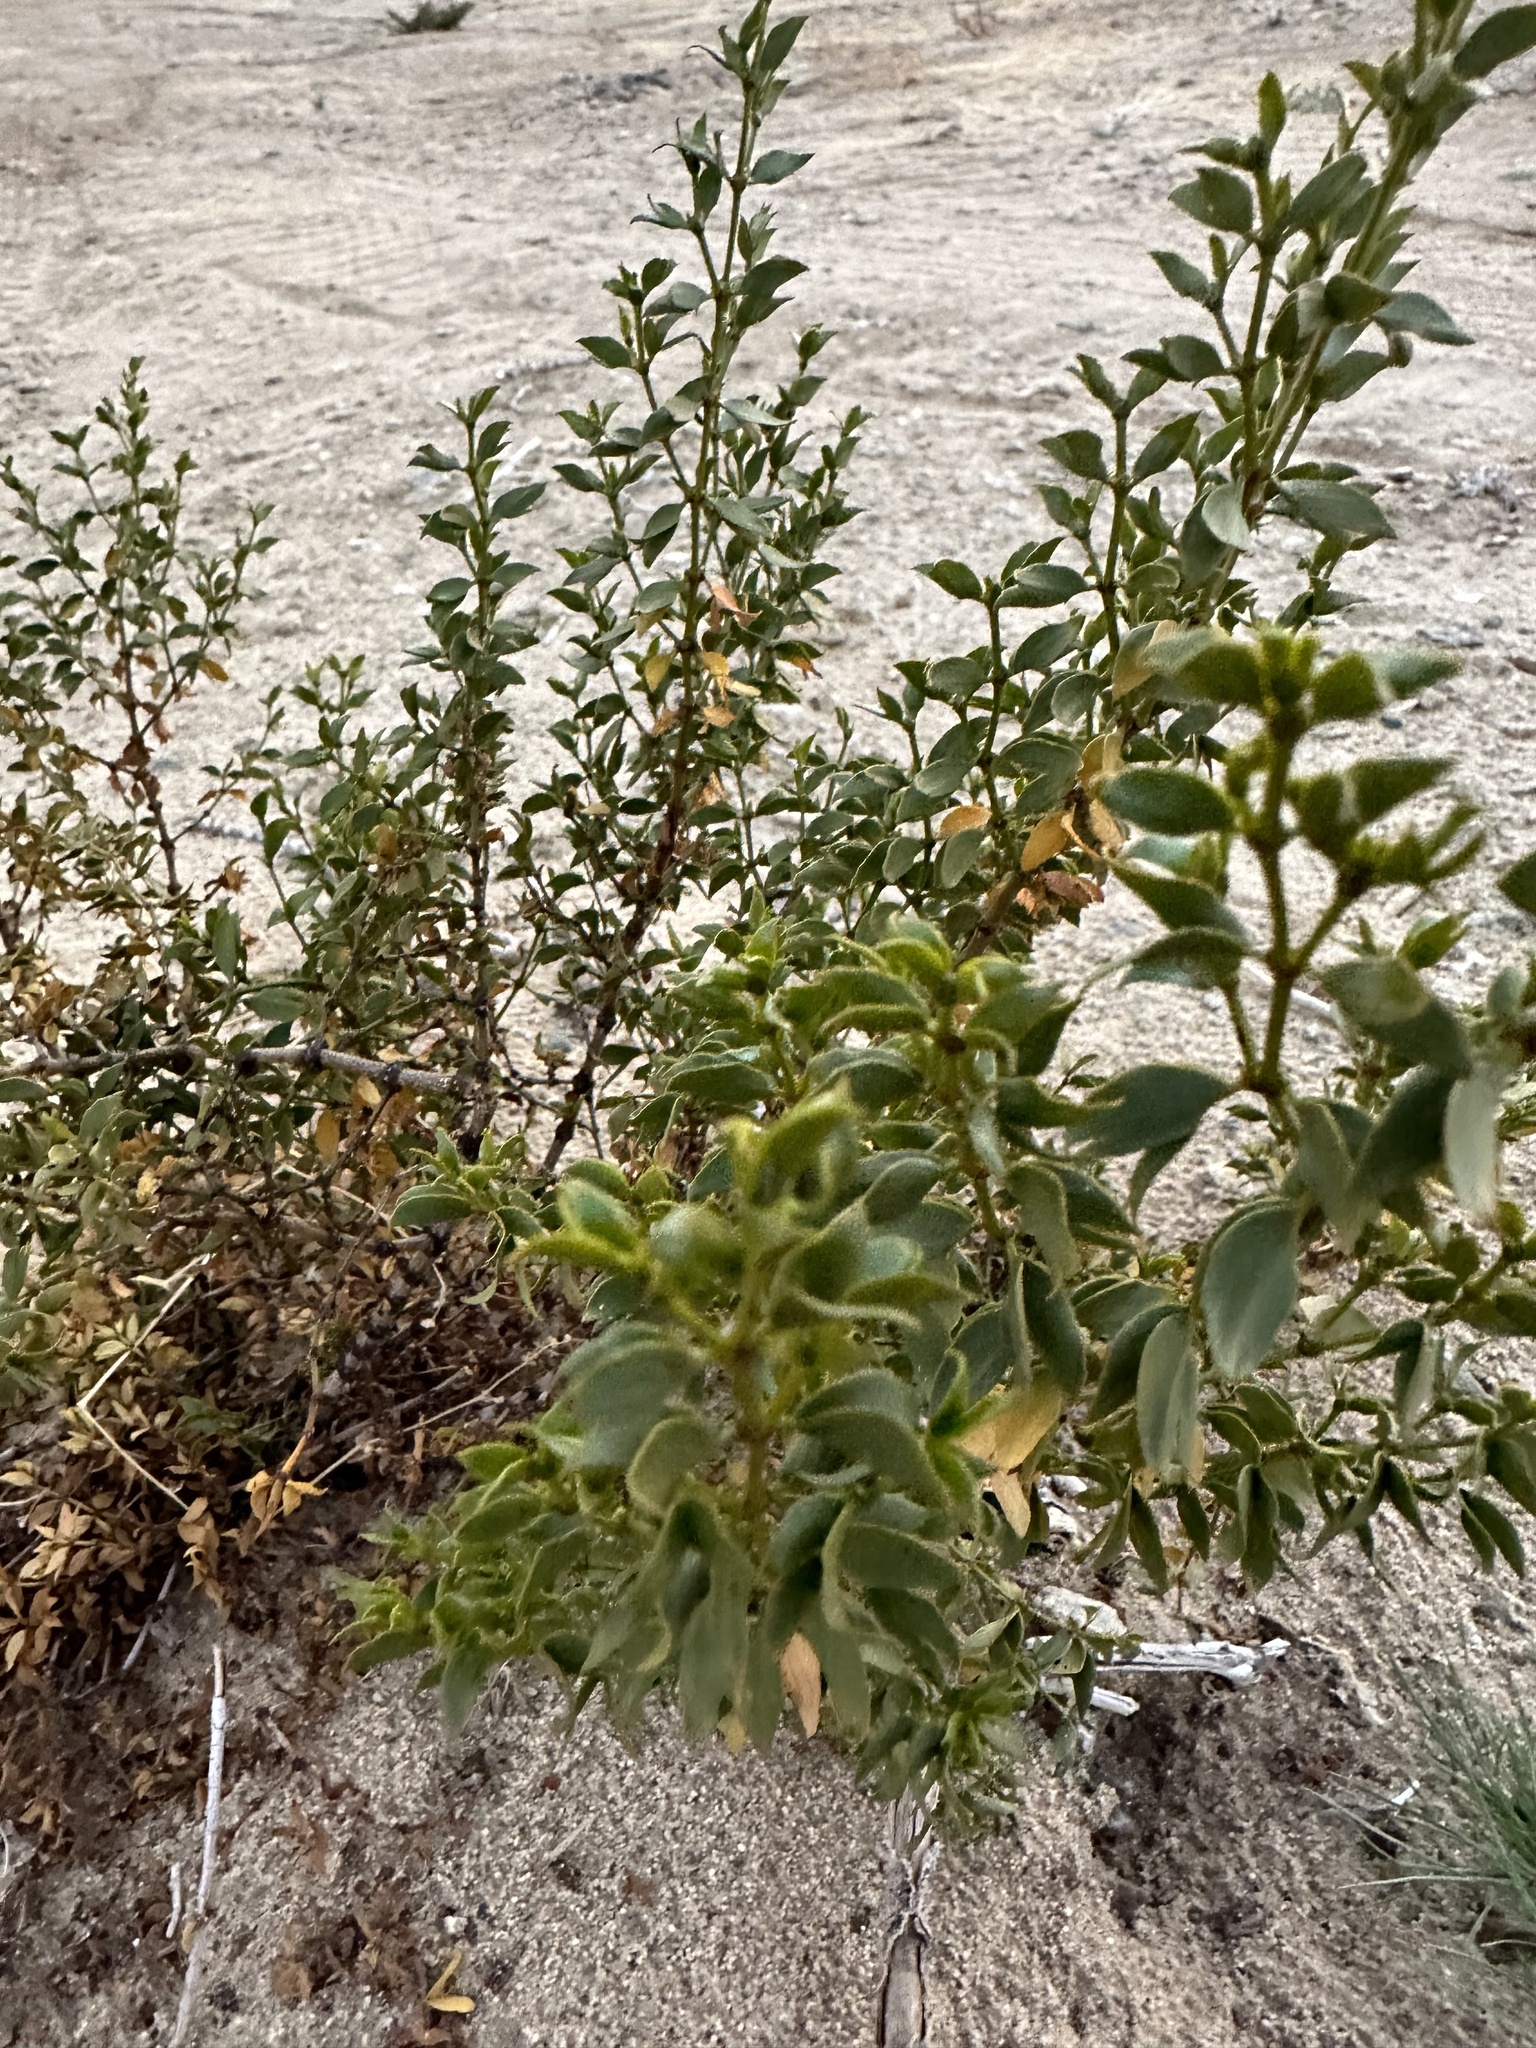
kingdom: Plantae
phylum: Tracheophyta
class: Magnoliopsida
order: Zygophyllales
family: Zygophyllaceae
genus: Larrea
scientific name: Larrea tridentata
